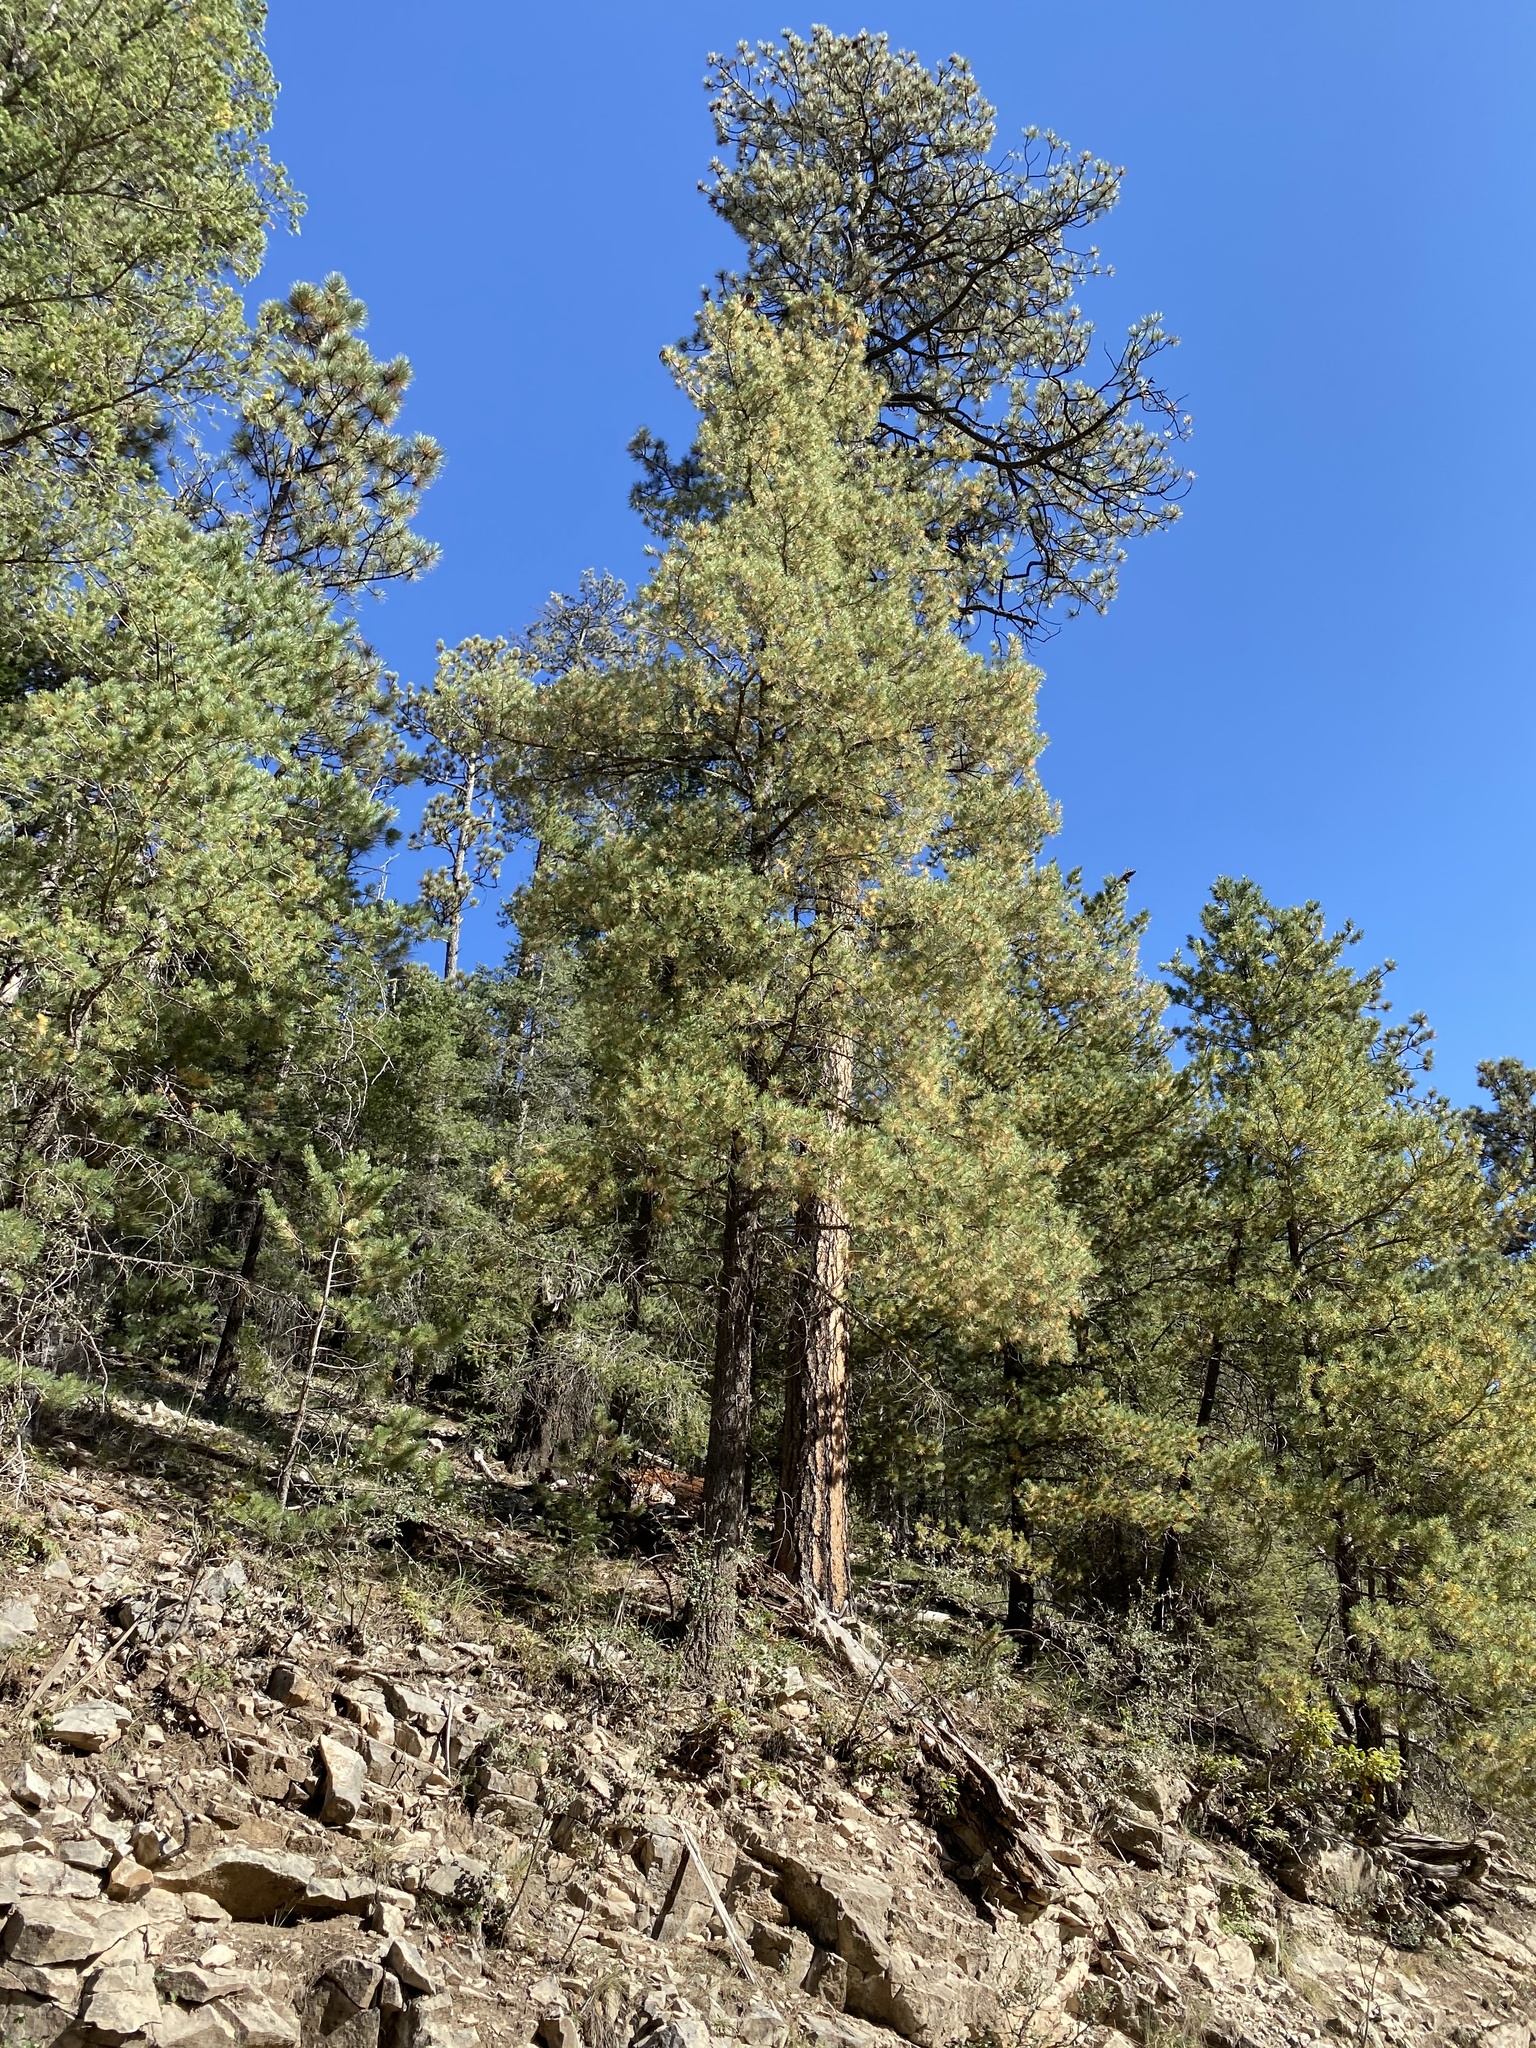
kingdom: Plantae
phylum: Tracheophyta
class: Pinopsida
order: Pinales
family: Pinaceae
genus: Pinus
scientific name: Pinus strobiformis
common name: Southwestern white pine
